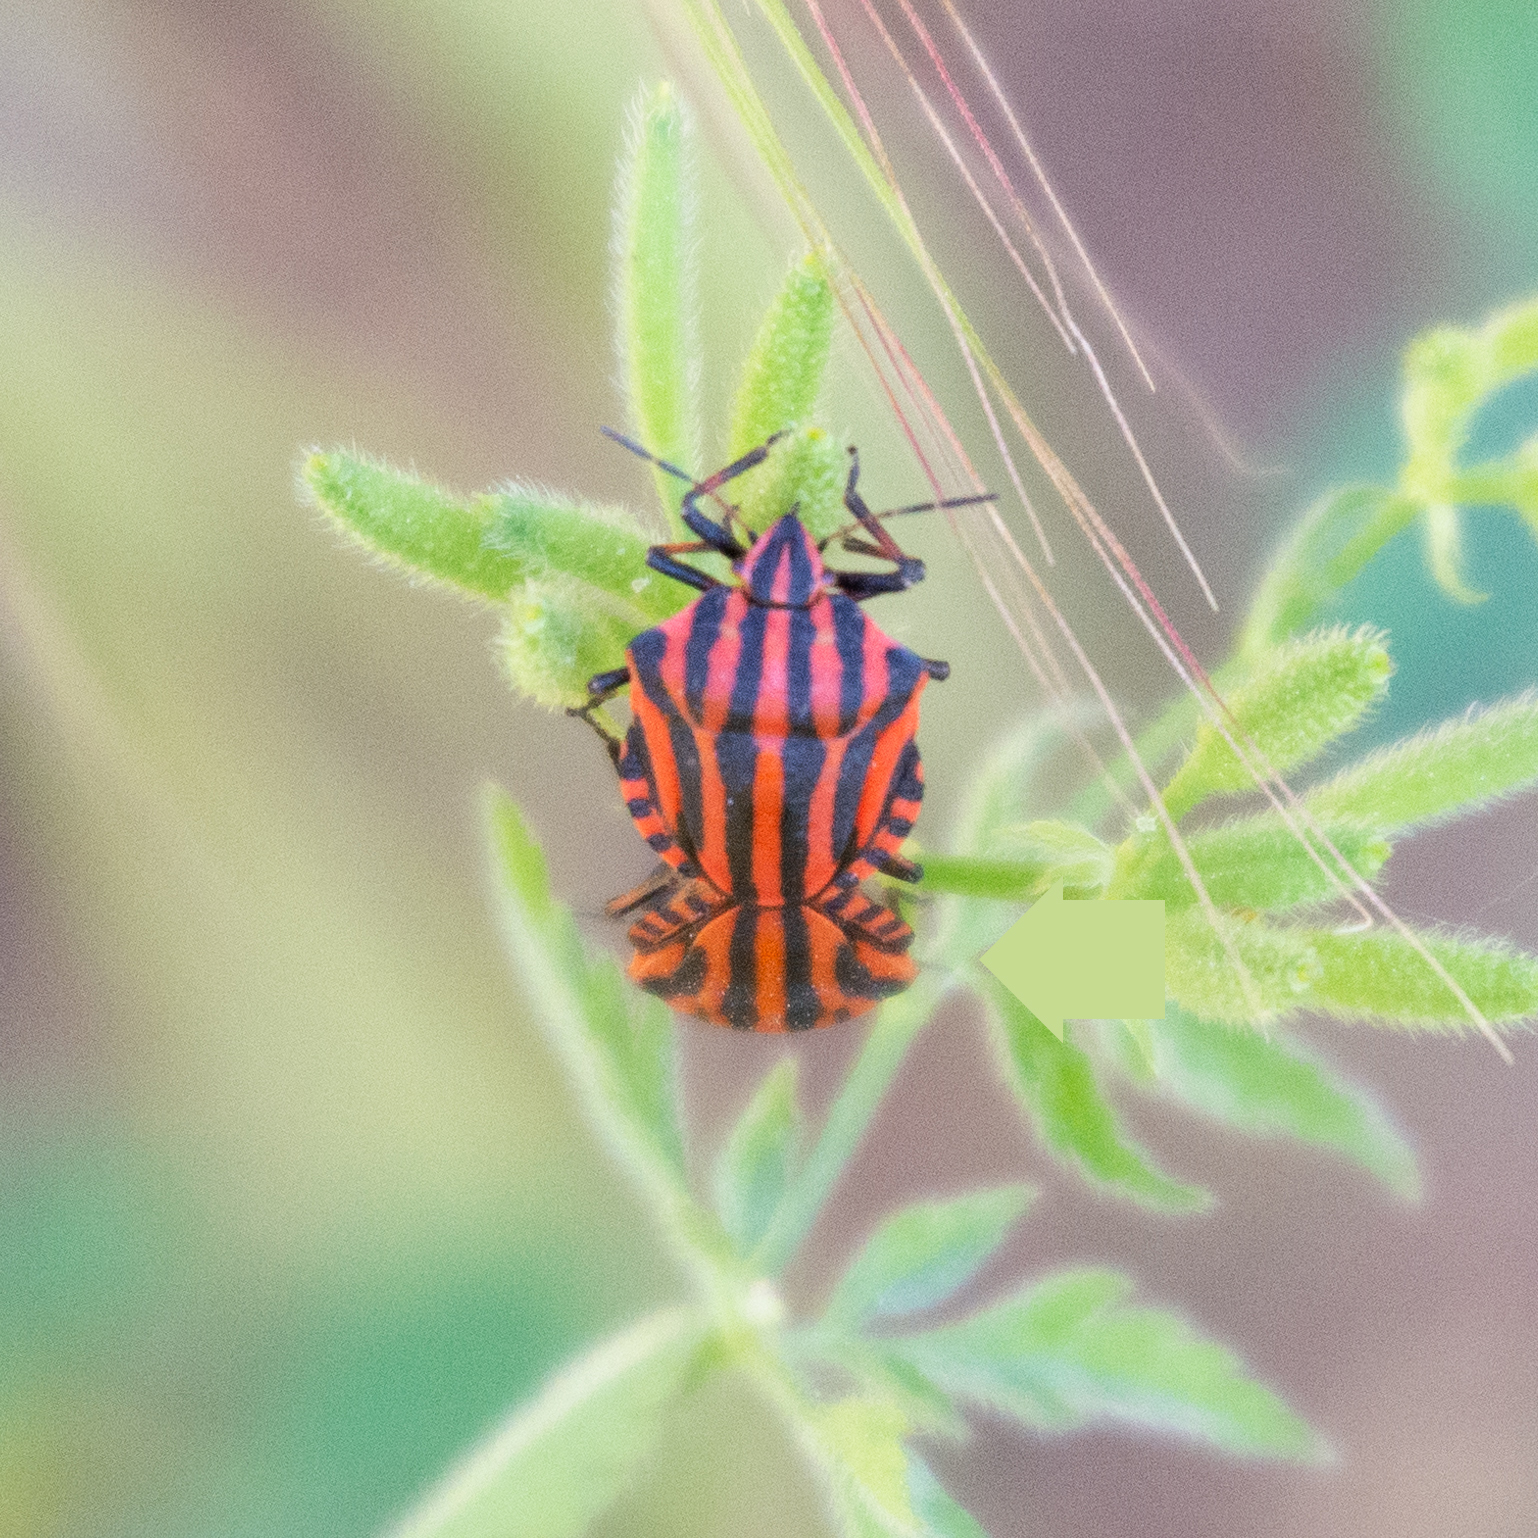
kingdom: Animalia
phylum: Arthropoda
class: Insecta
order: Hemiptera
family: Pentatomidae
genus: Graphosoma
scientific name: Graphosoma italicum
